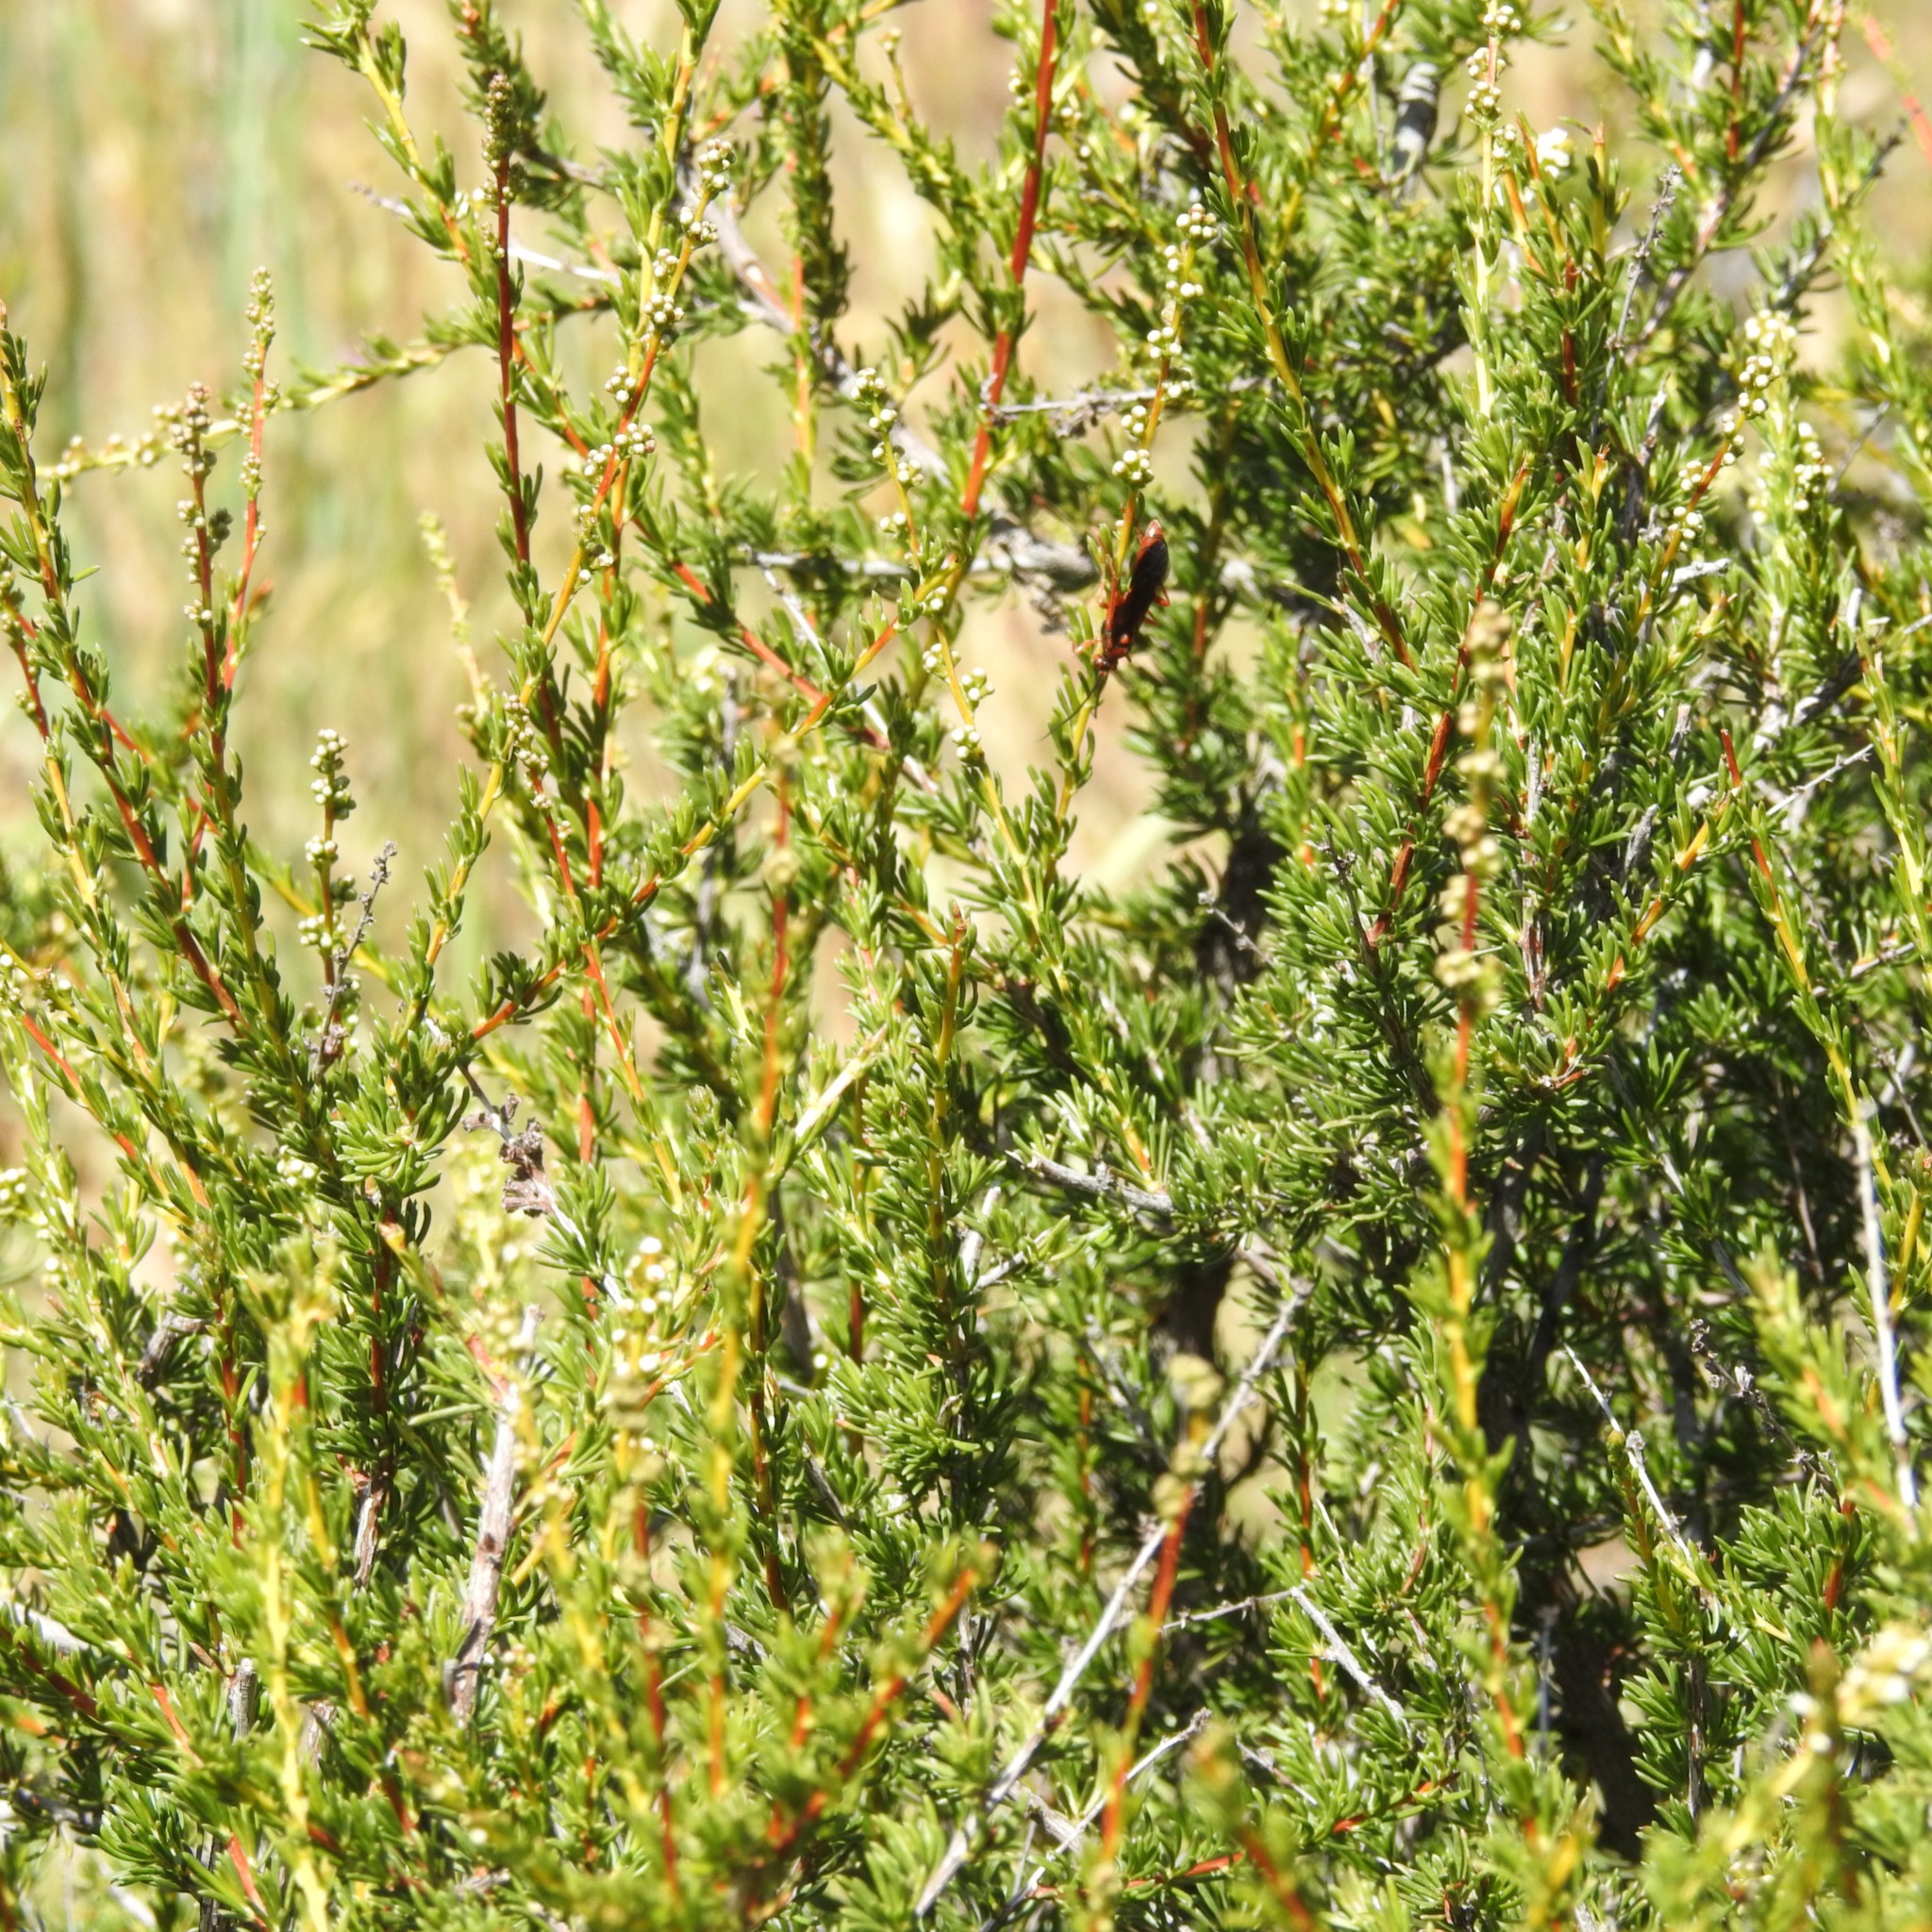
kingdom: Plantae
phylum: Tracheophyta
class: Magnoliopsida
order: Rosales
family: Rosaceae
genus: Adenostoma
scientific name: Adenostoma fasciculatum
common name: Chamise
